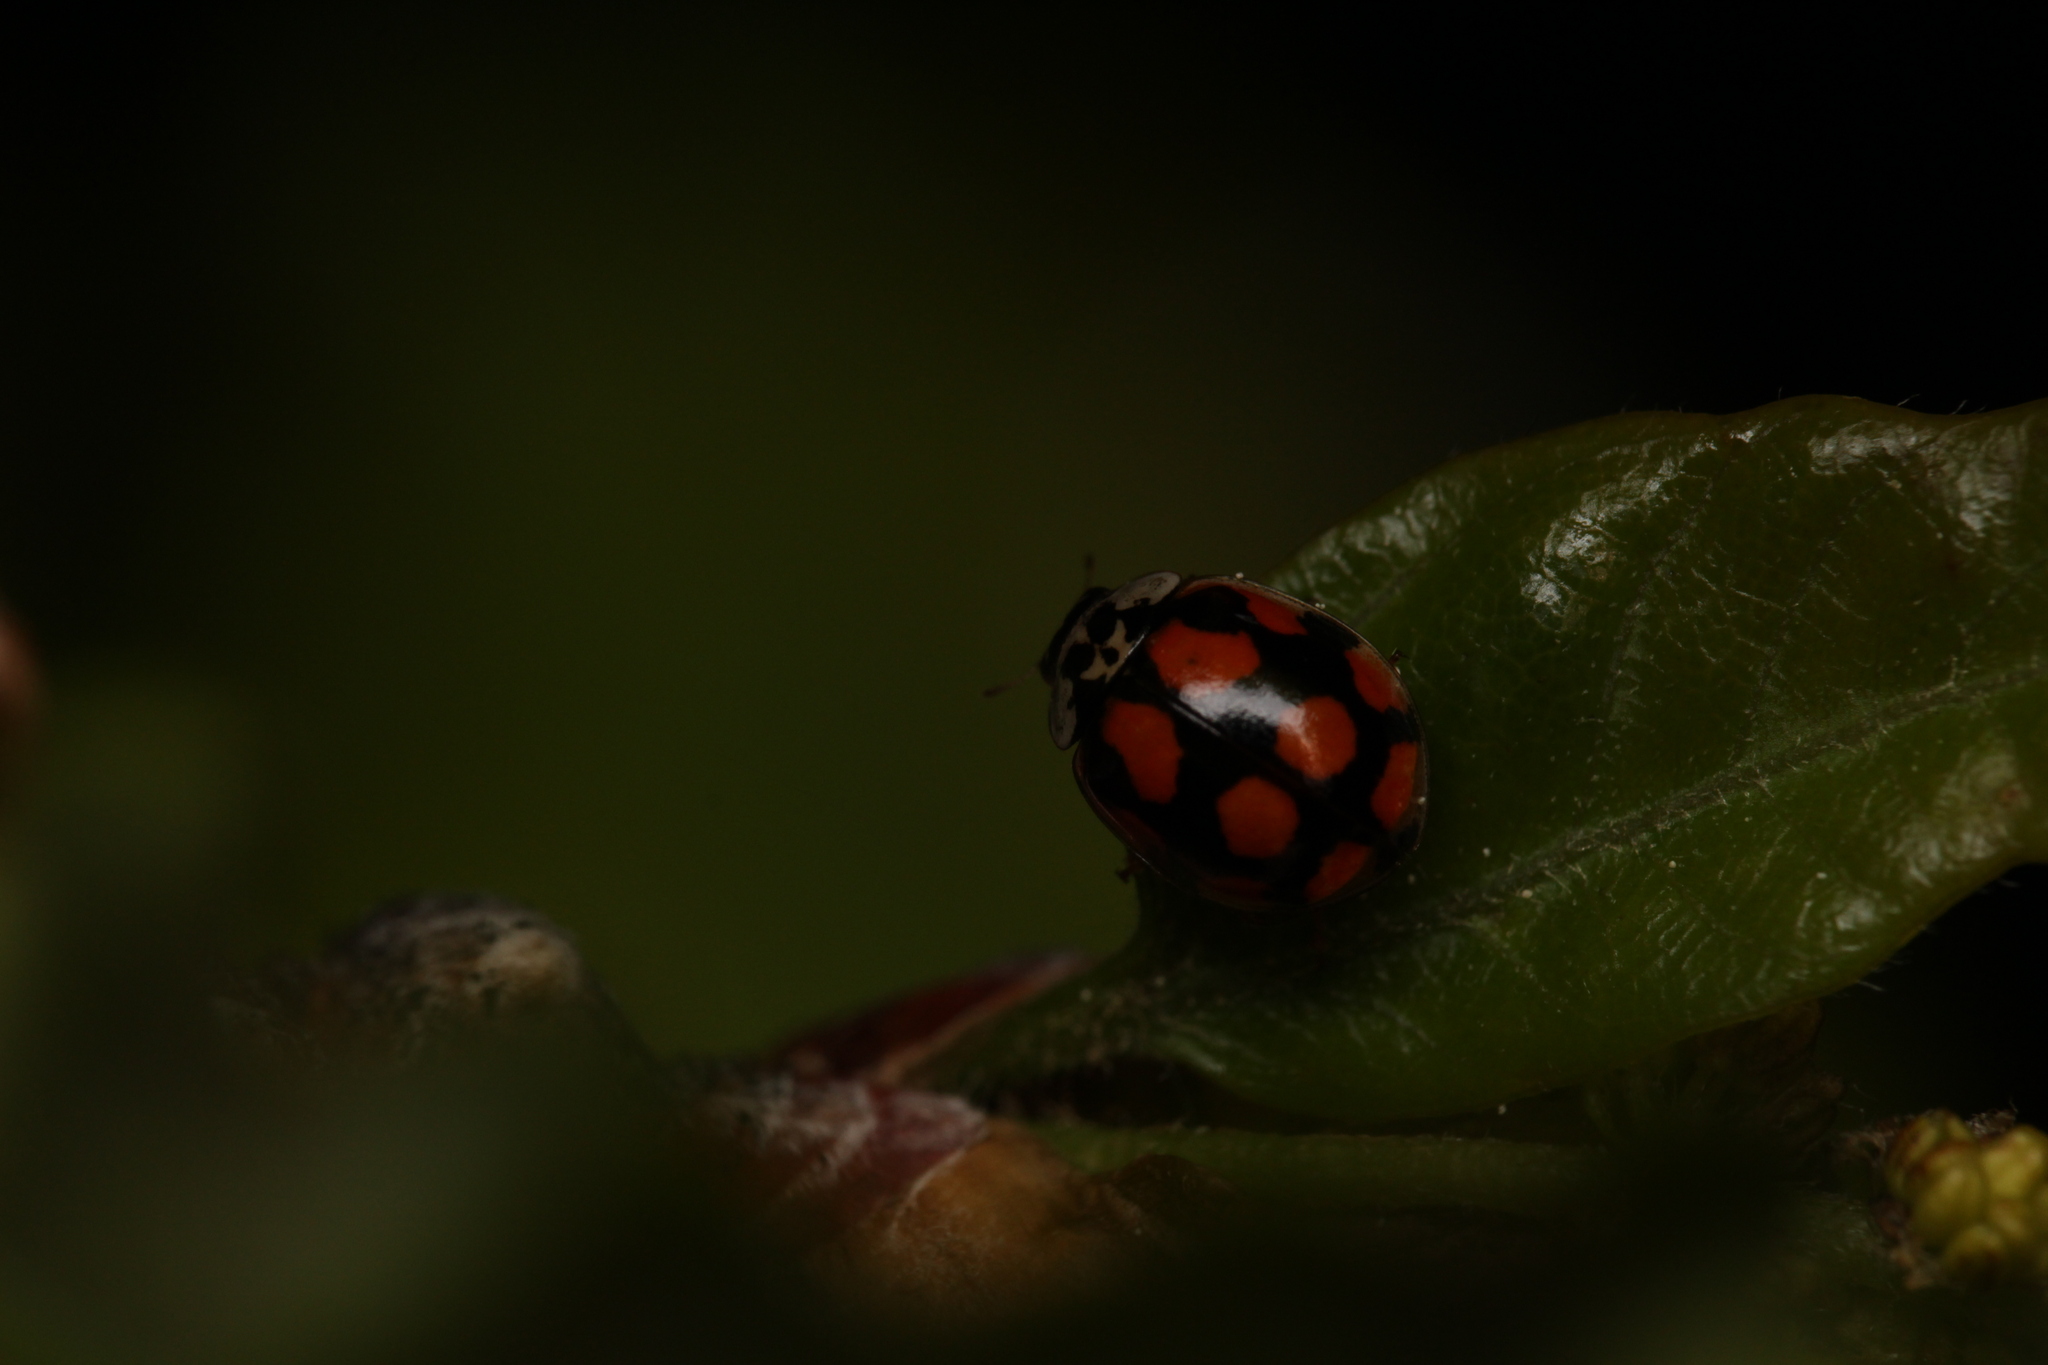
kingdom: Animalia
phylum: Arthropoda
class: Insecta
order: Coleoptera
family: Coccinellidae
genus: Adalia
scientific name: Adalia decempunctata
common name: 10-spot ladybird
